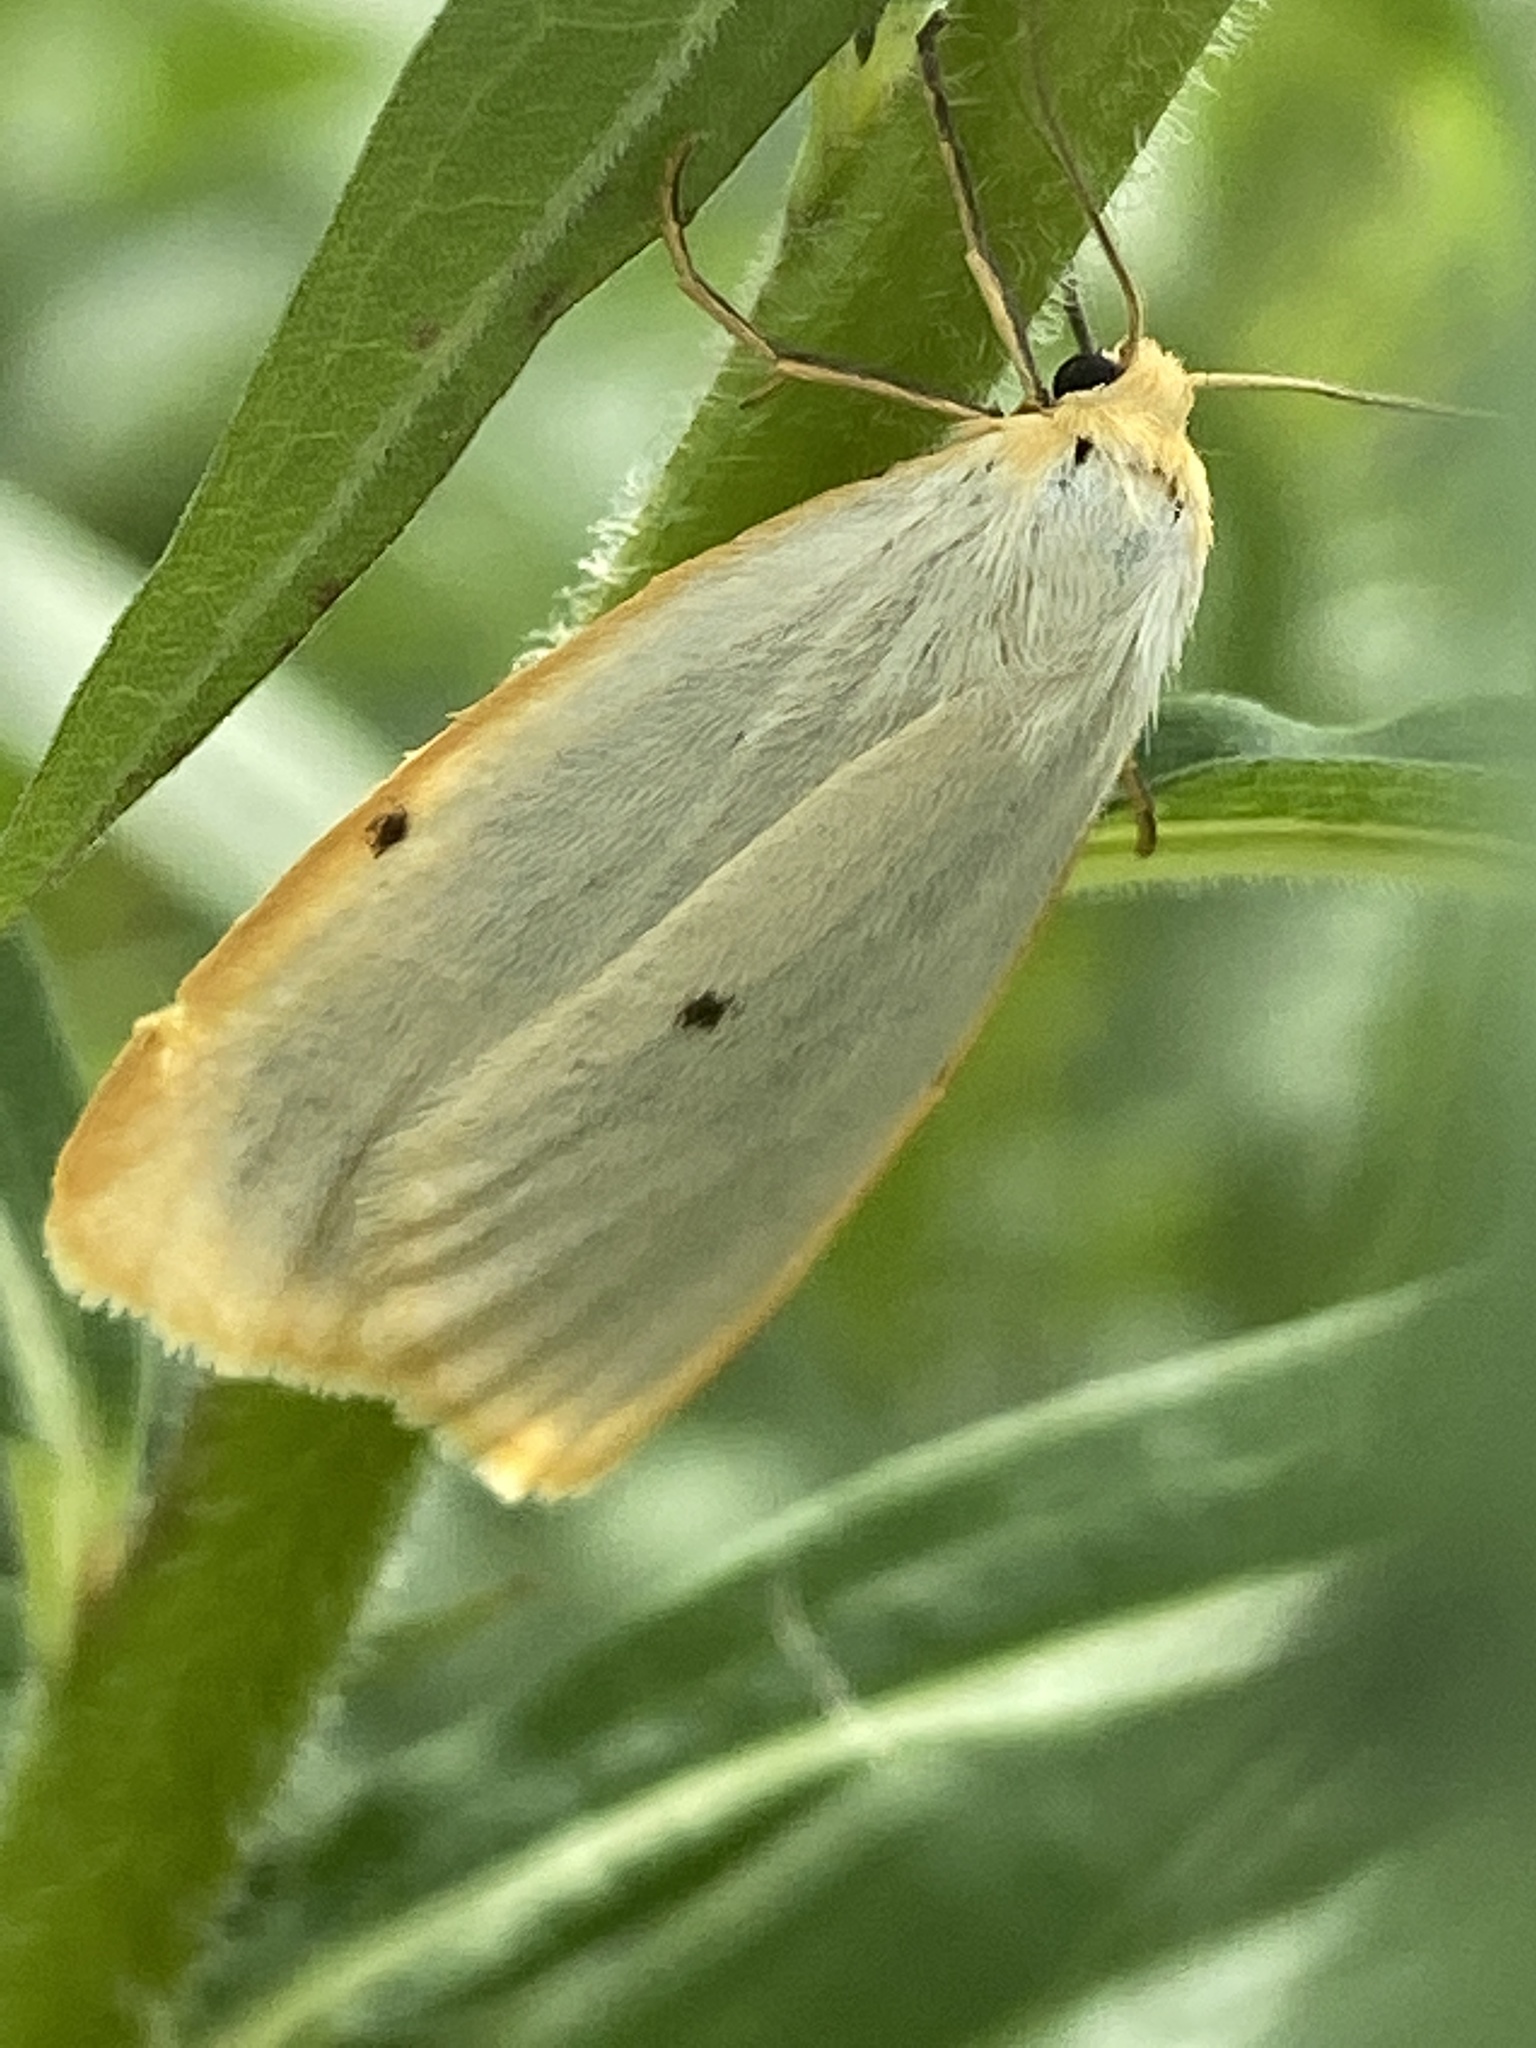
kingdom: Animalia
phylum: Arthropoda
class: Insecta
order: Lepidoptera
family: Erebidae
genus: Cybosia
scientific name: Cybosia mesomella
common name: Four-dotted footman
